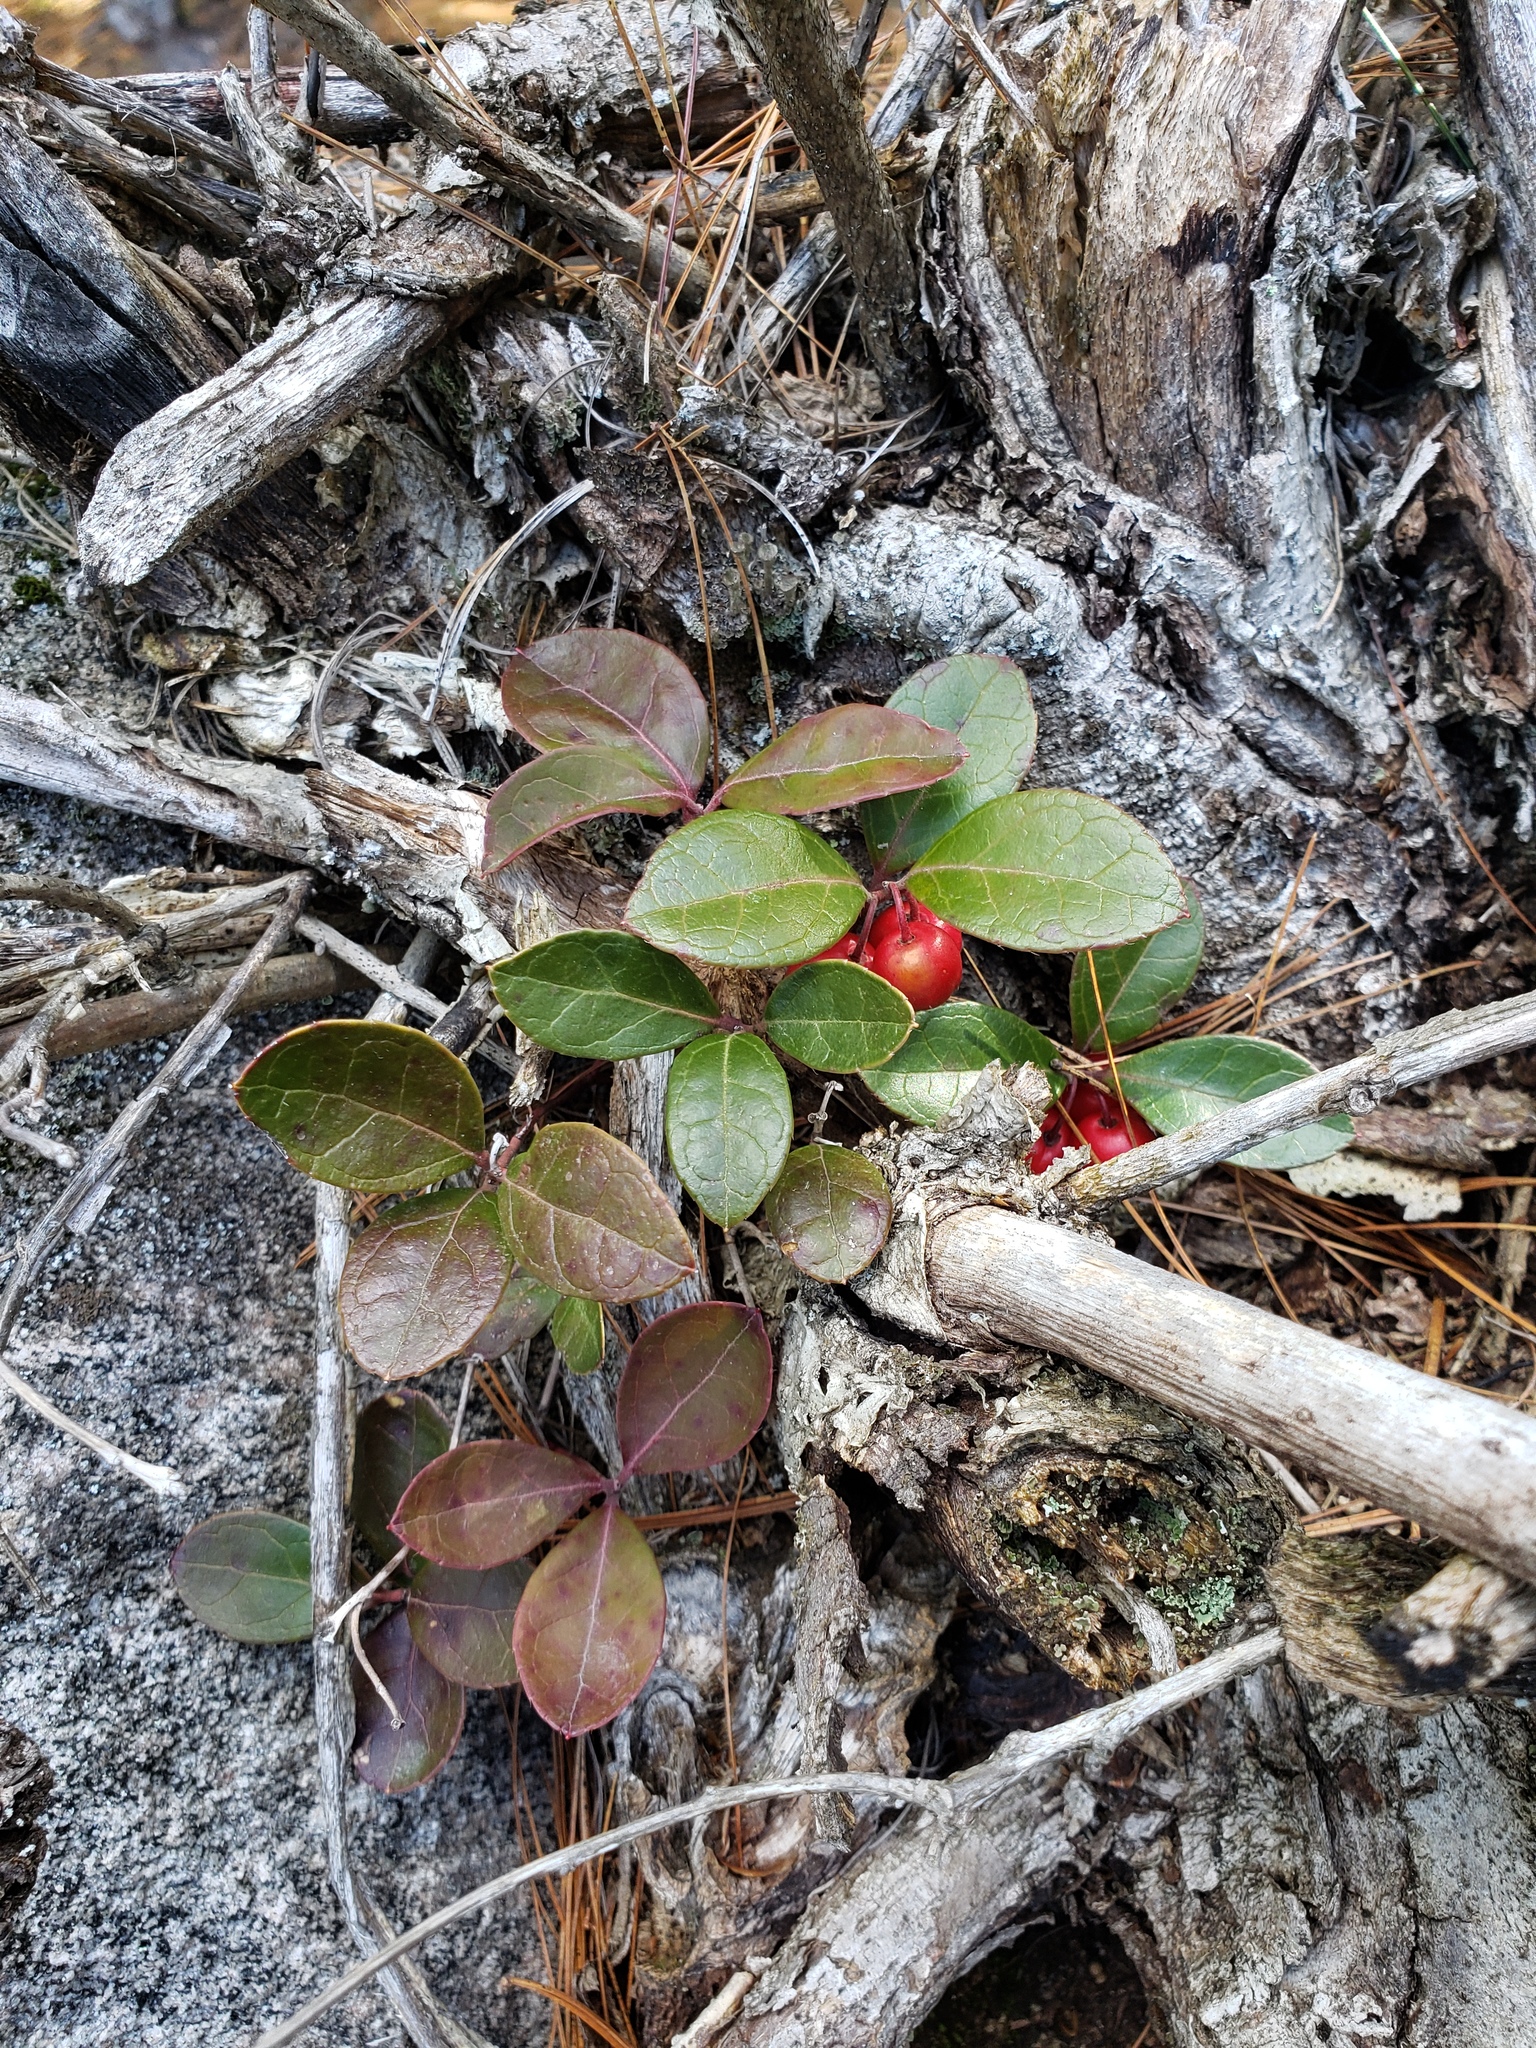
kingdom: Plantae
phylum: Tracheophyta
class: Magnoliopsida
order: Ericales
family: Ericaceae
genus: Gaultheria
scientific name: Gaultheria procumbens
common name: Checkerberry
